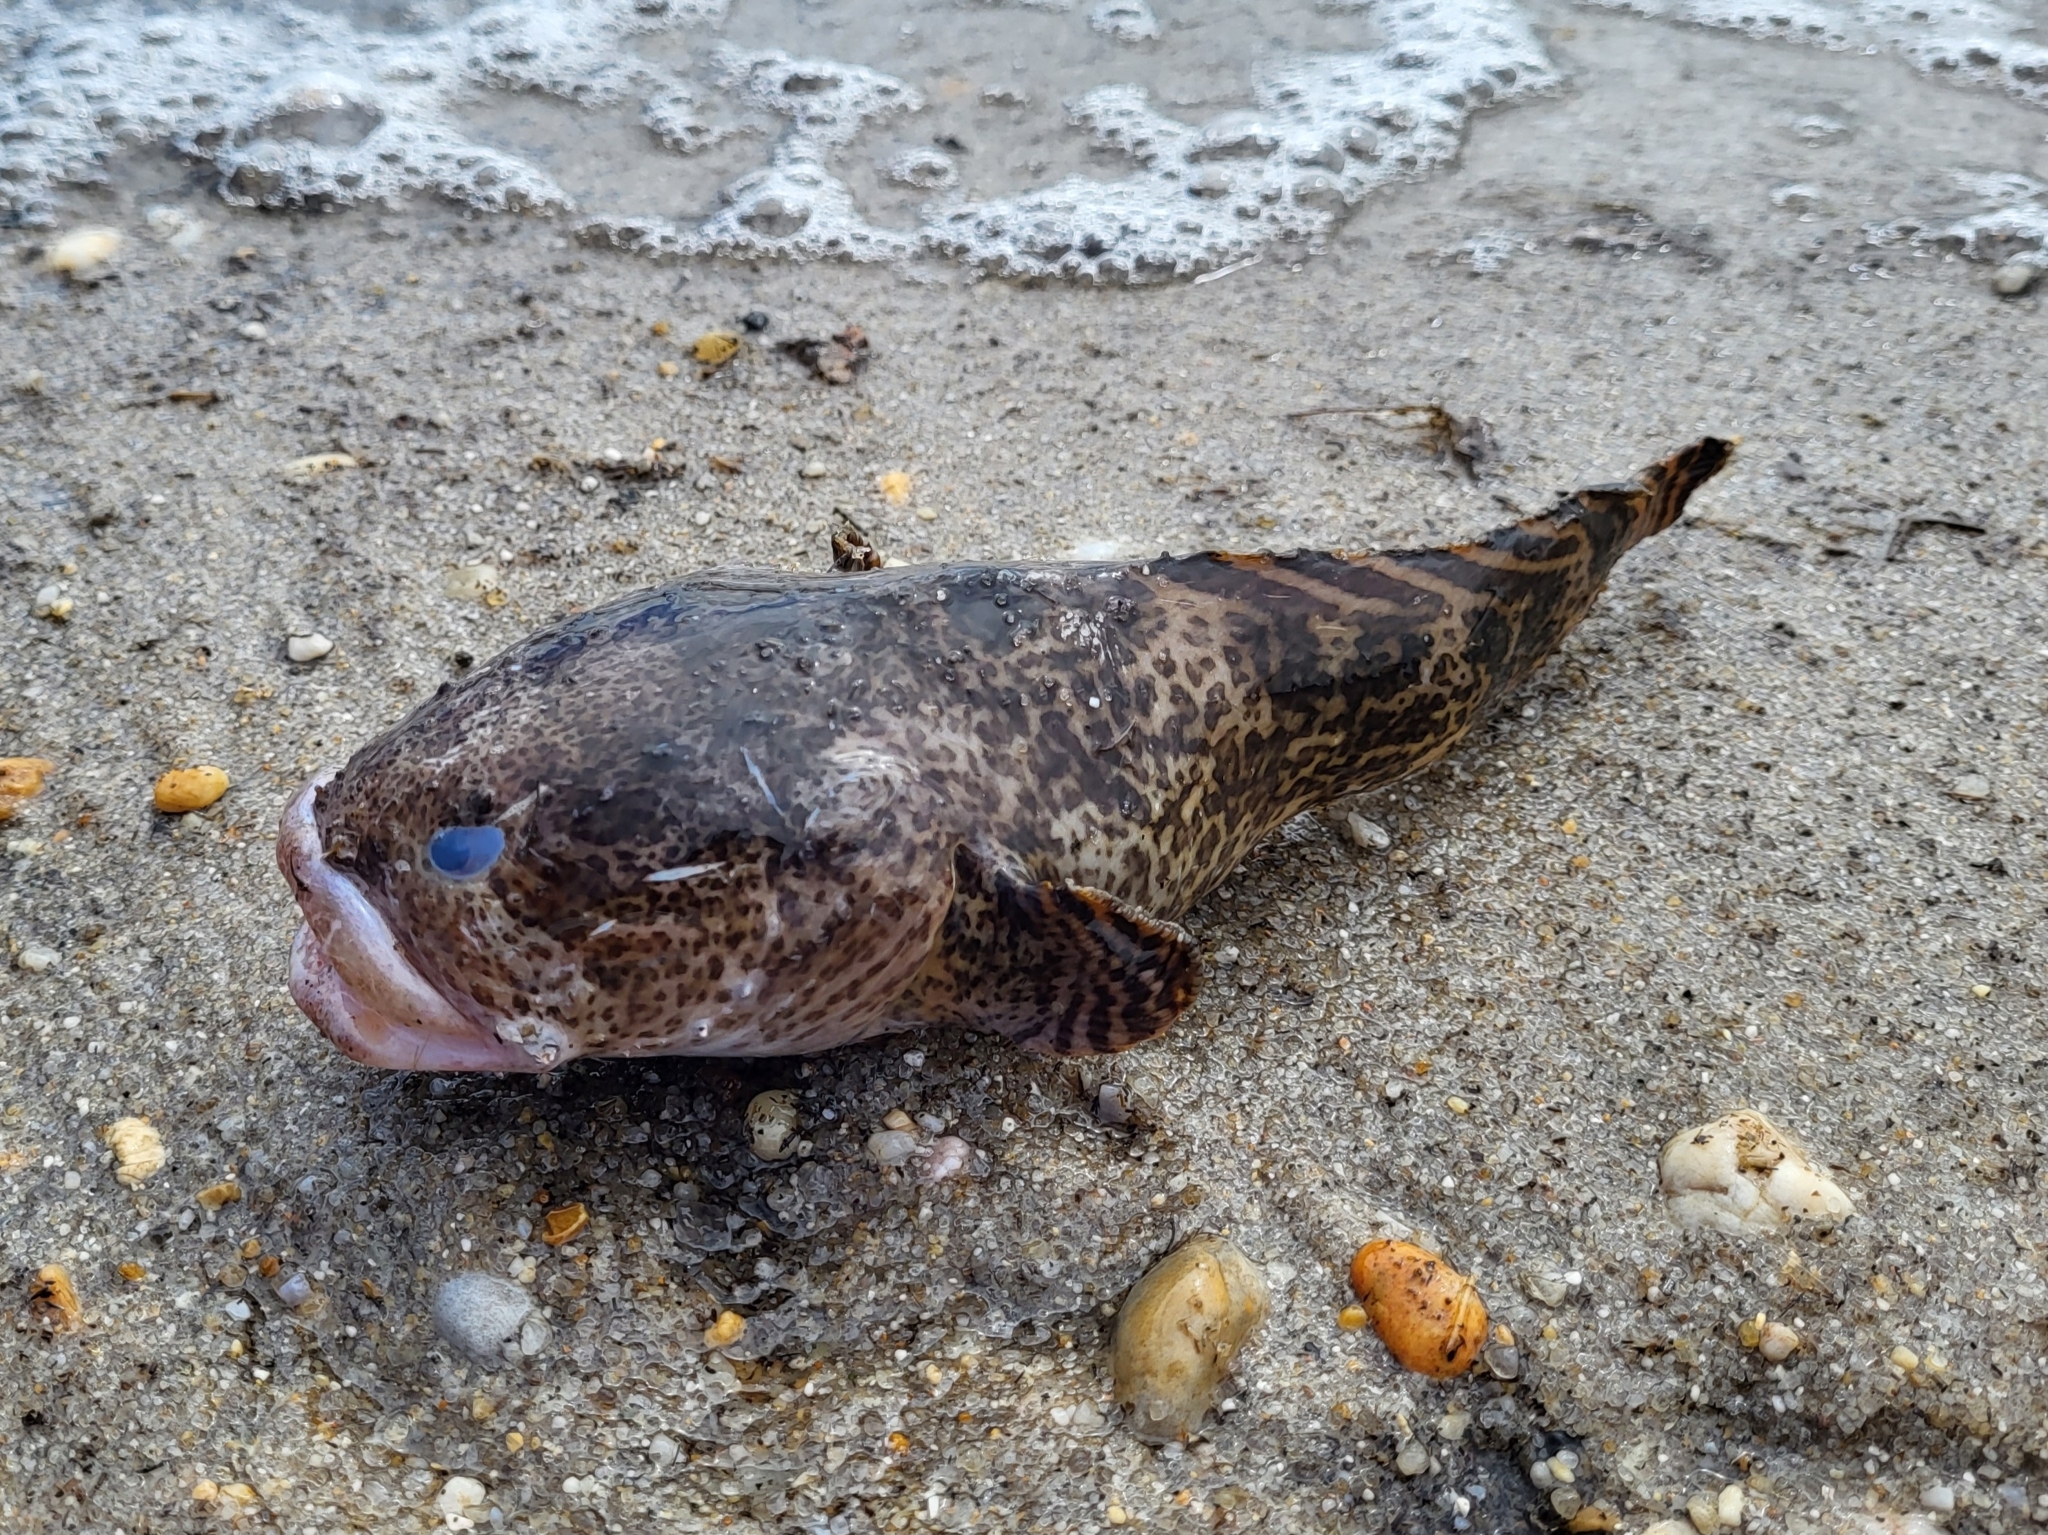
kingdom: Animalia
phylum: Chordata
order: Batrachoidiformes
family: Batrachoididae
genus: Opsanus
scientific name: Opsanus tau
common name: Oyster toadfish
